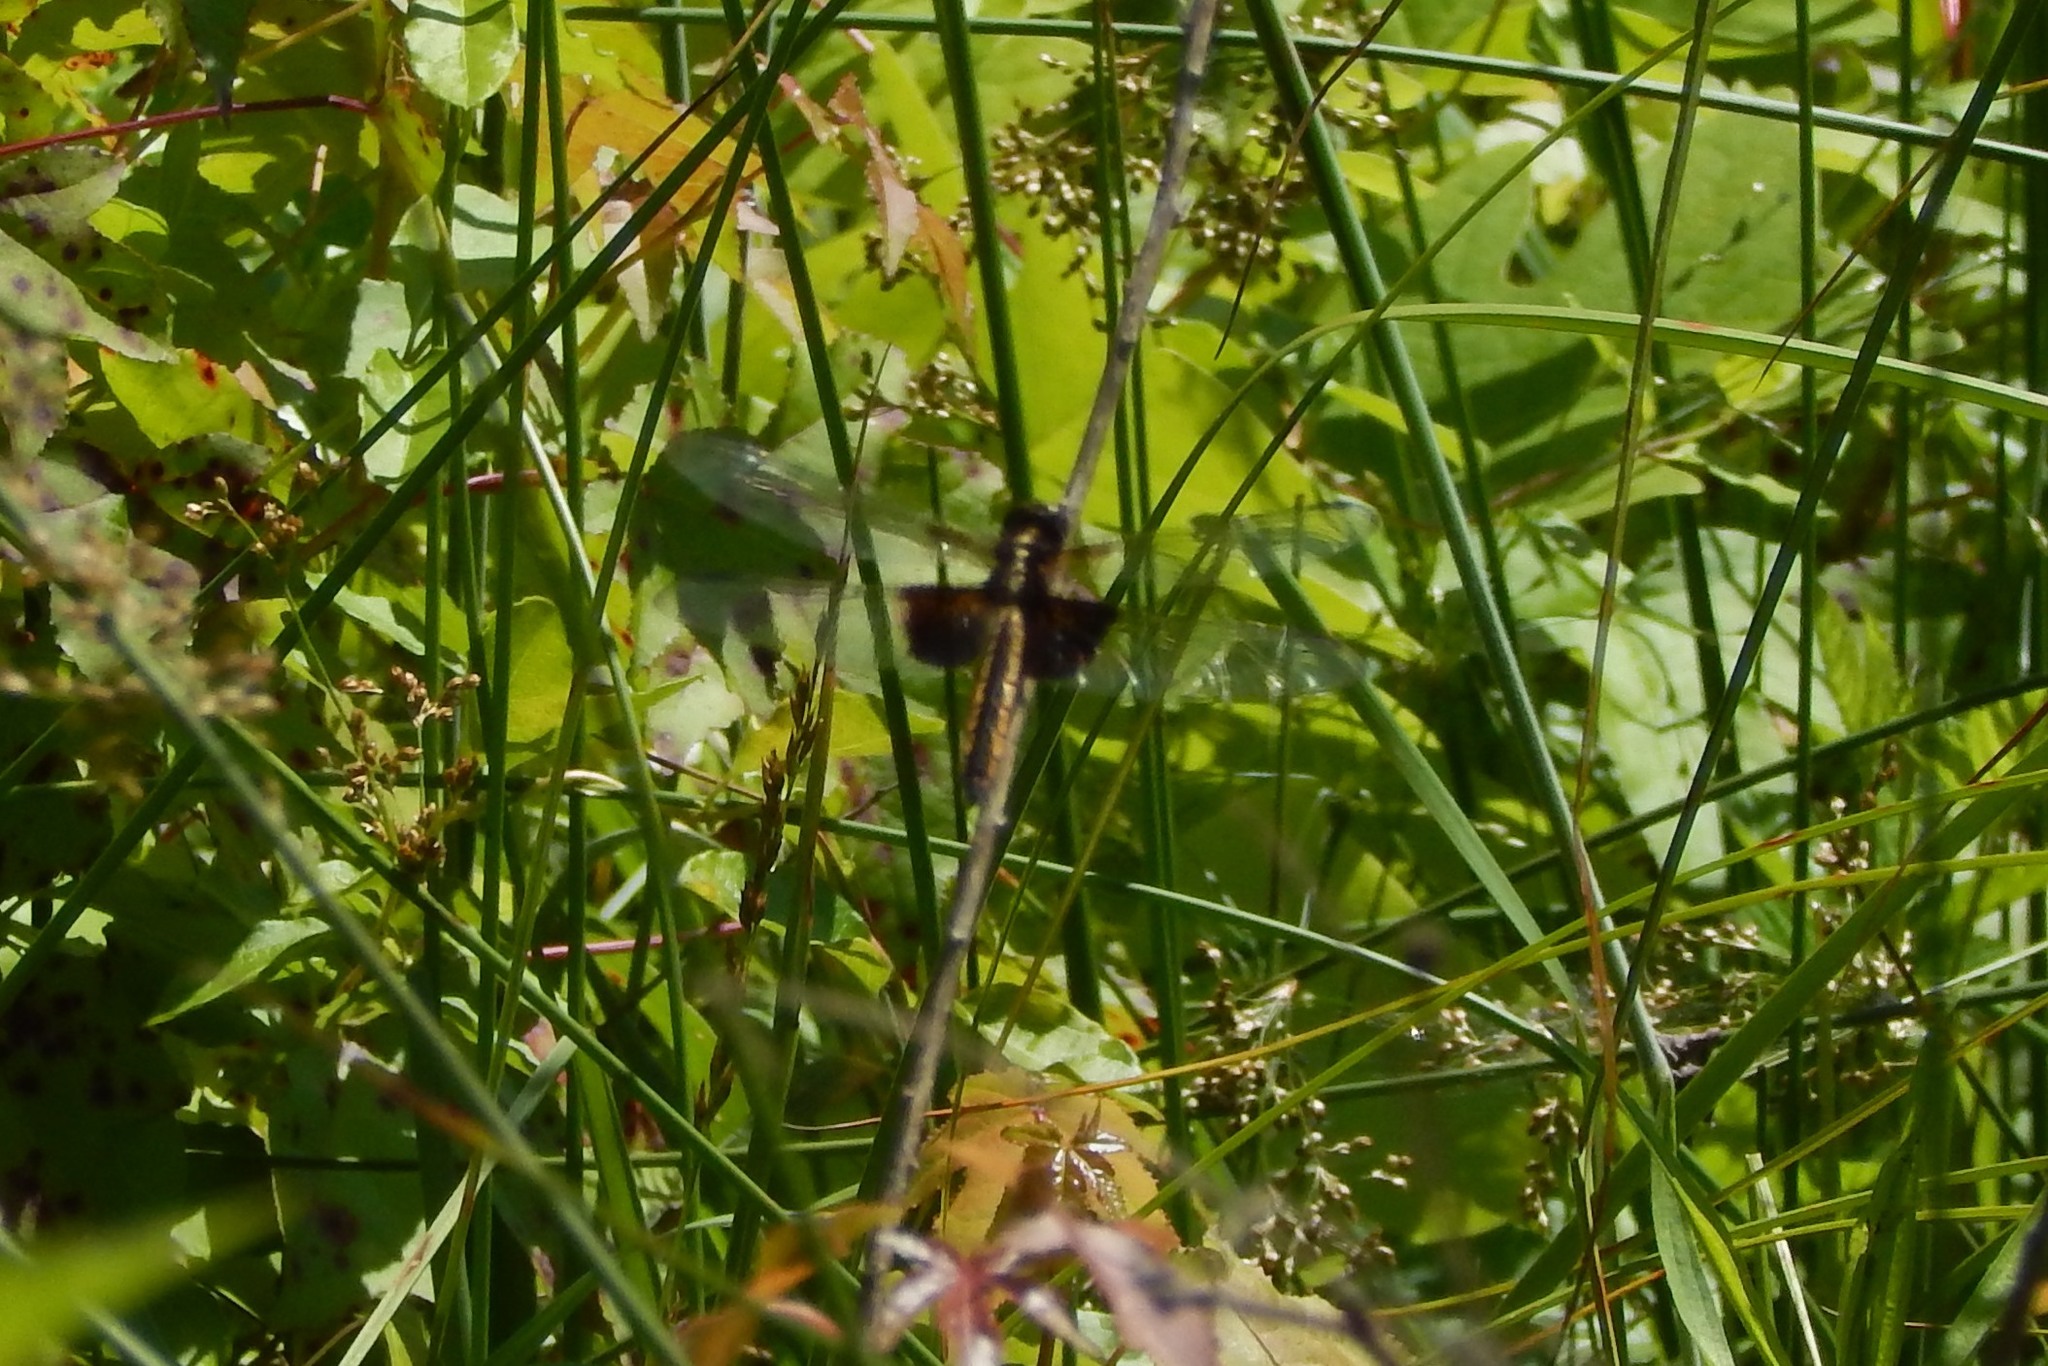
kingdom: Animalia
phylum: Arthropoda
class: Insecta
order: Odonata
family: Libellulidae
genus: Libellula
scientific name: Libellula luctuosa
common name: Widow skimmer
